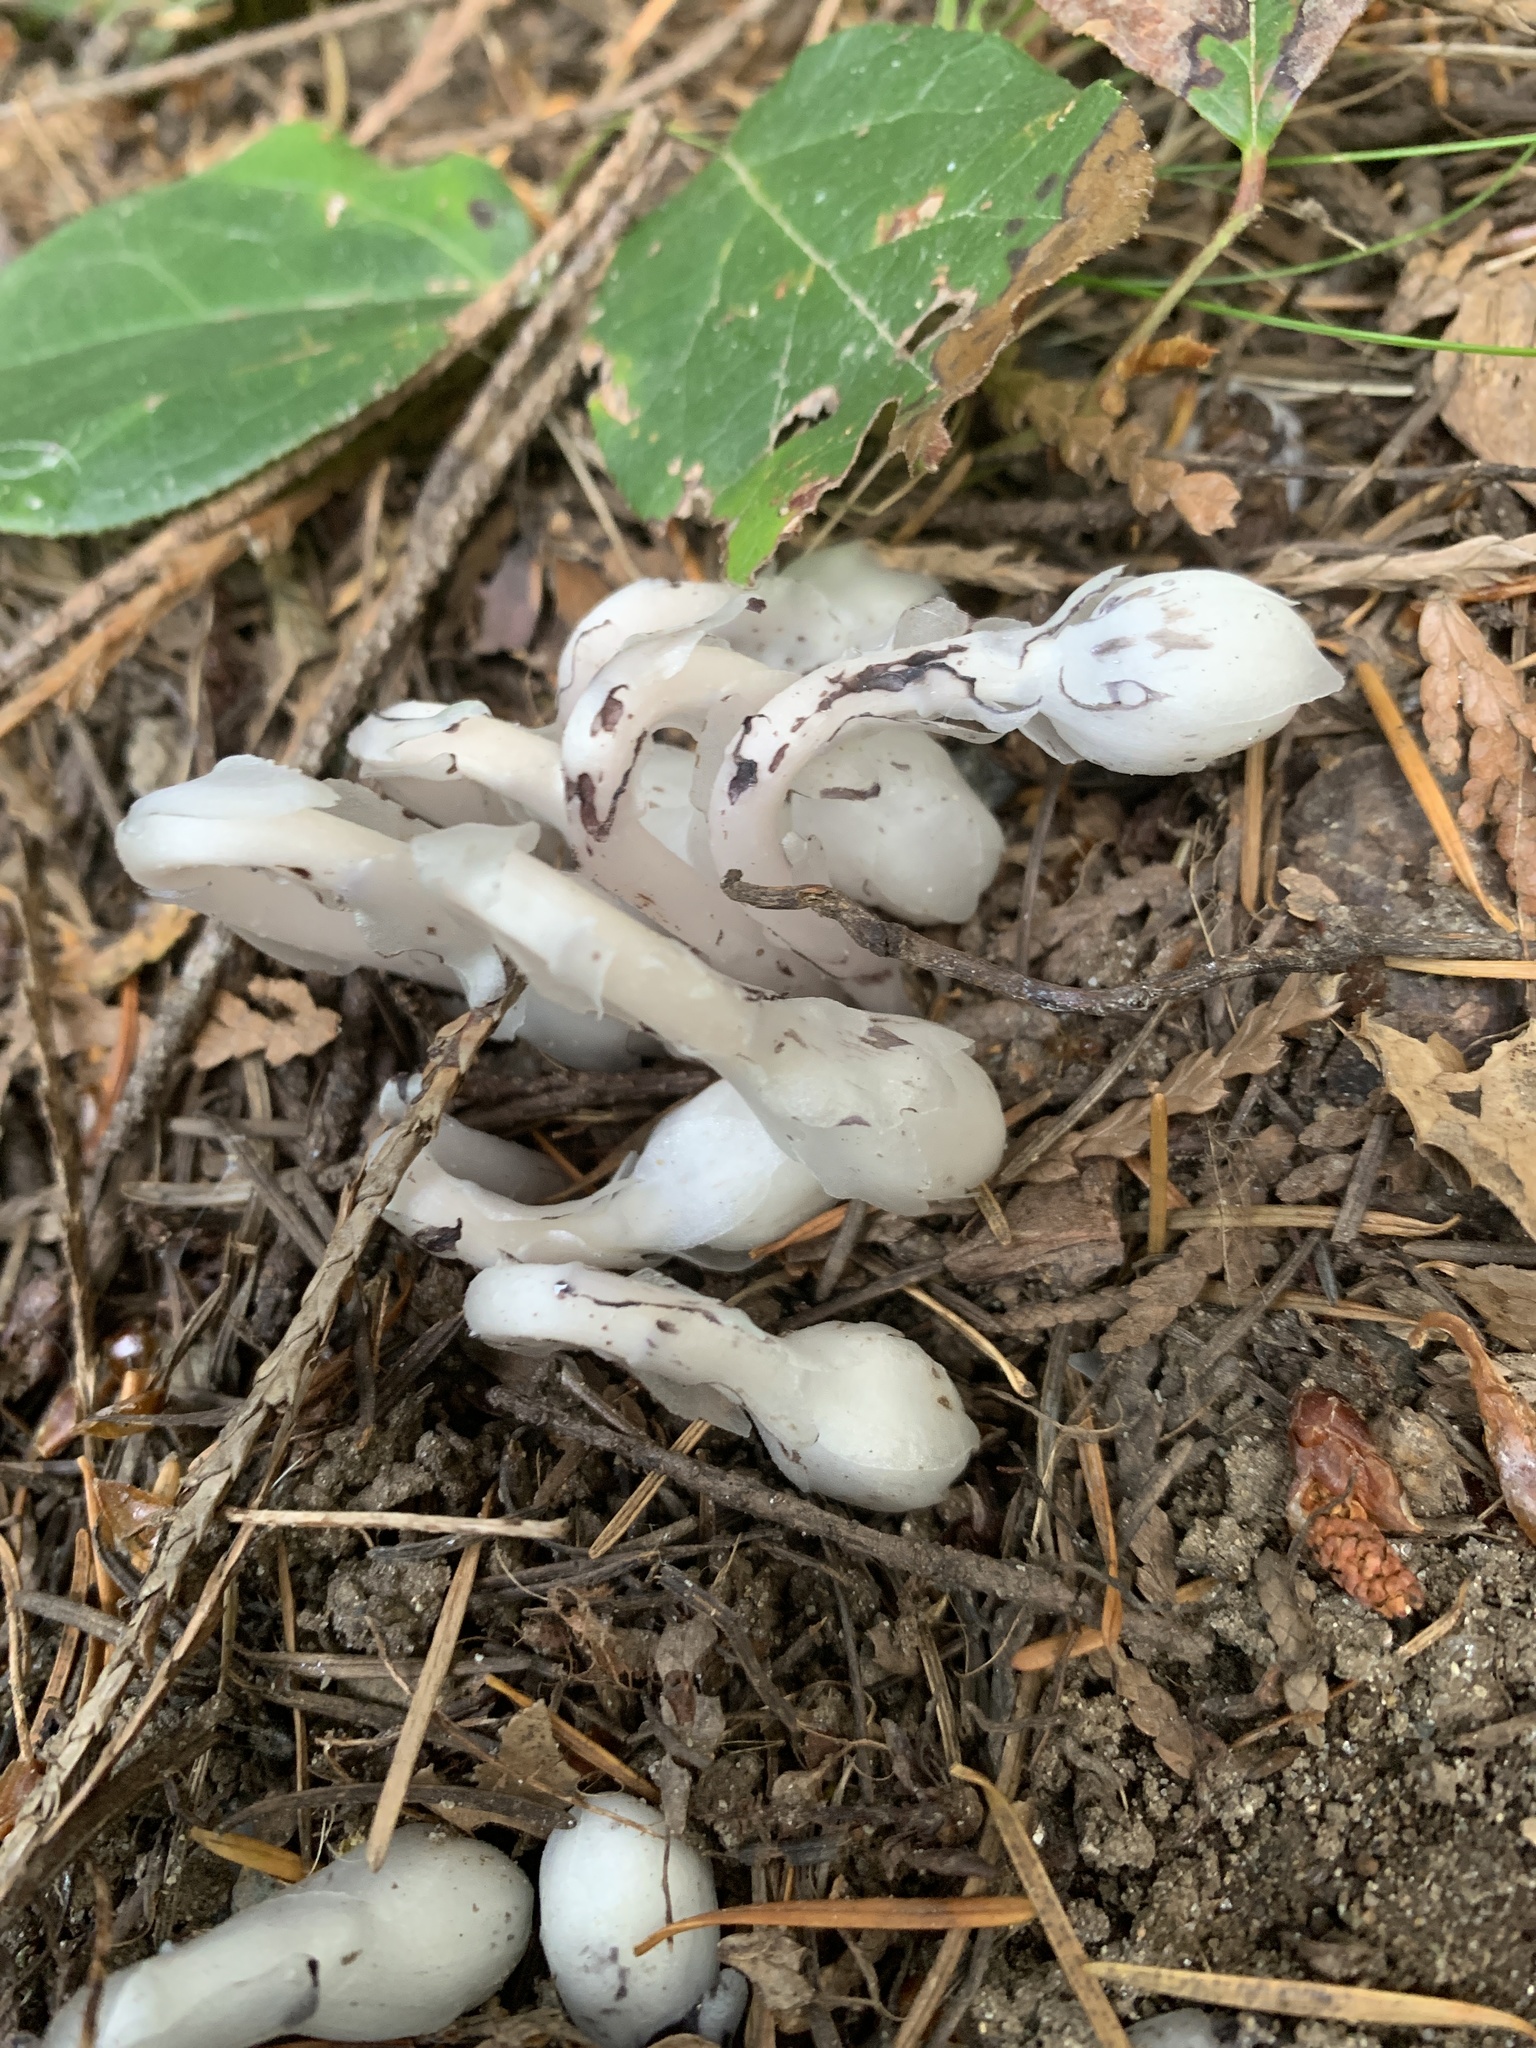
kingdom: Plantae
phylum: Tracheophyta
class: Magnoliopsida
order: Ericales
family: Ericaceae
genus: Monotropa
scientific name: Monotropa uniflora
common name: Convulsion root
